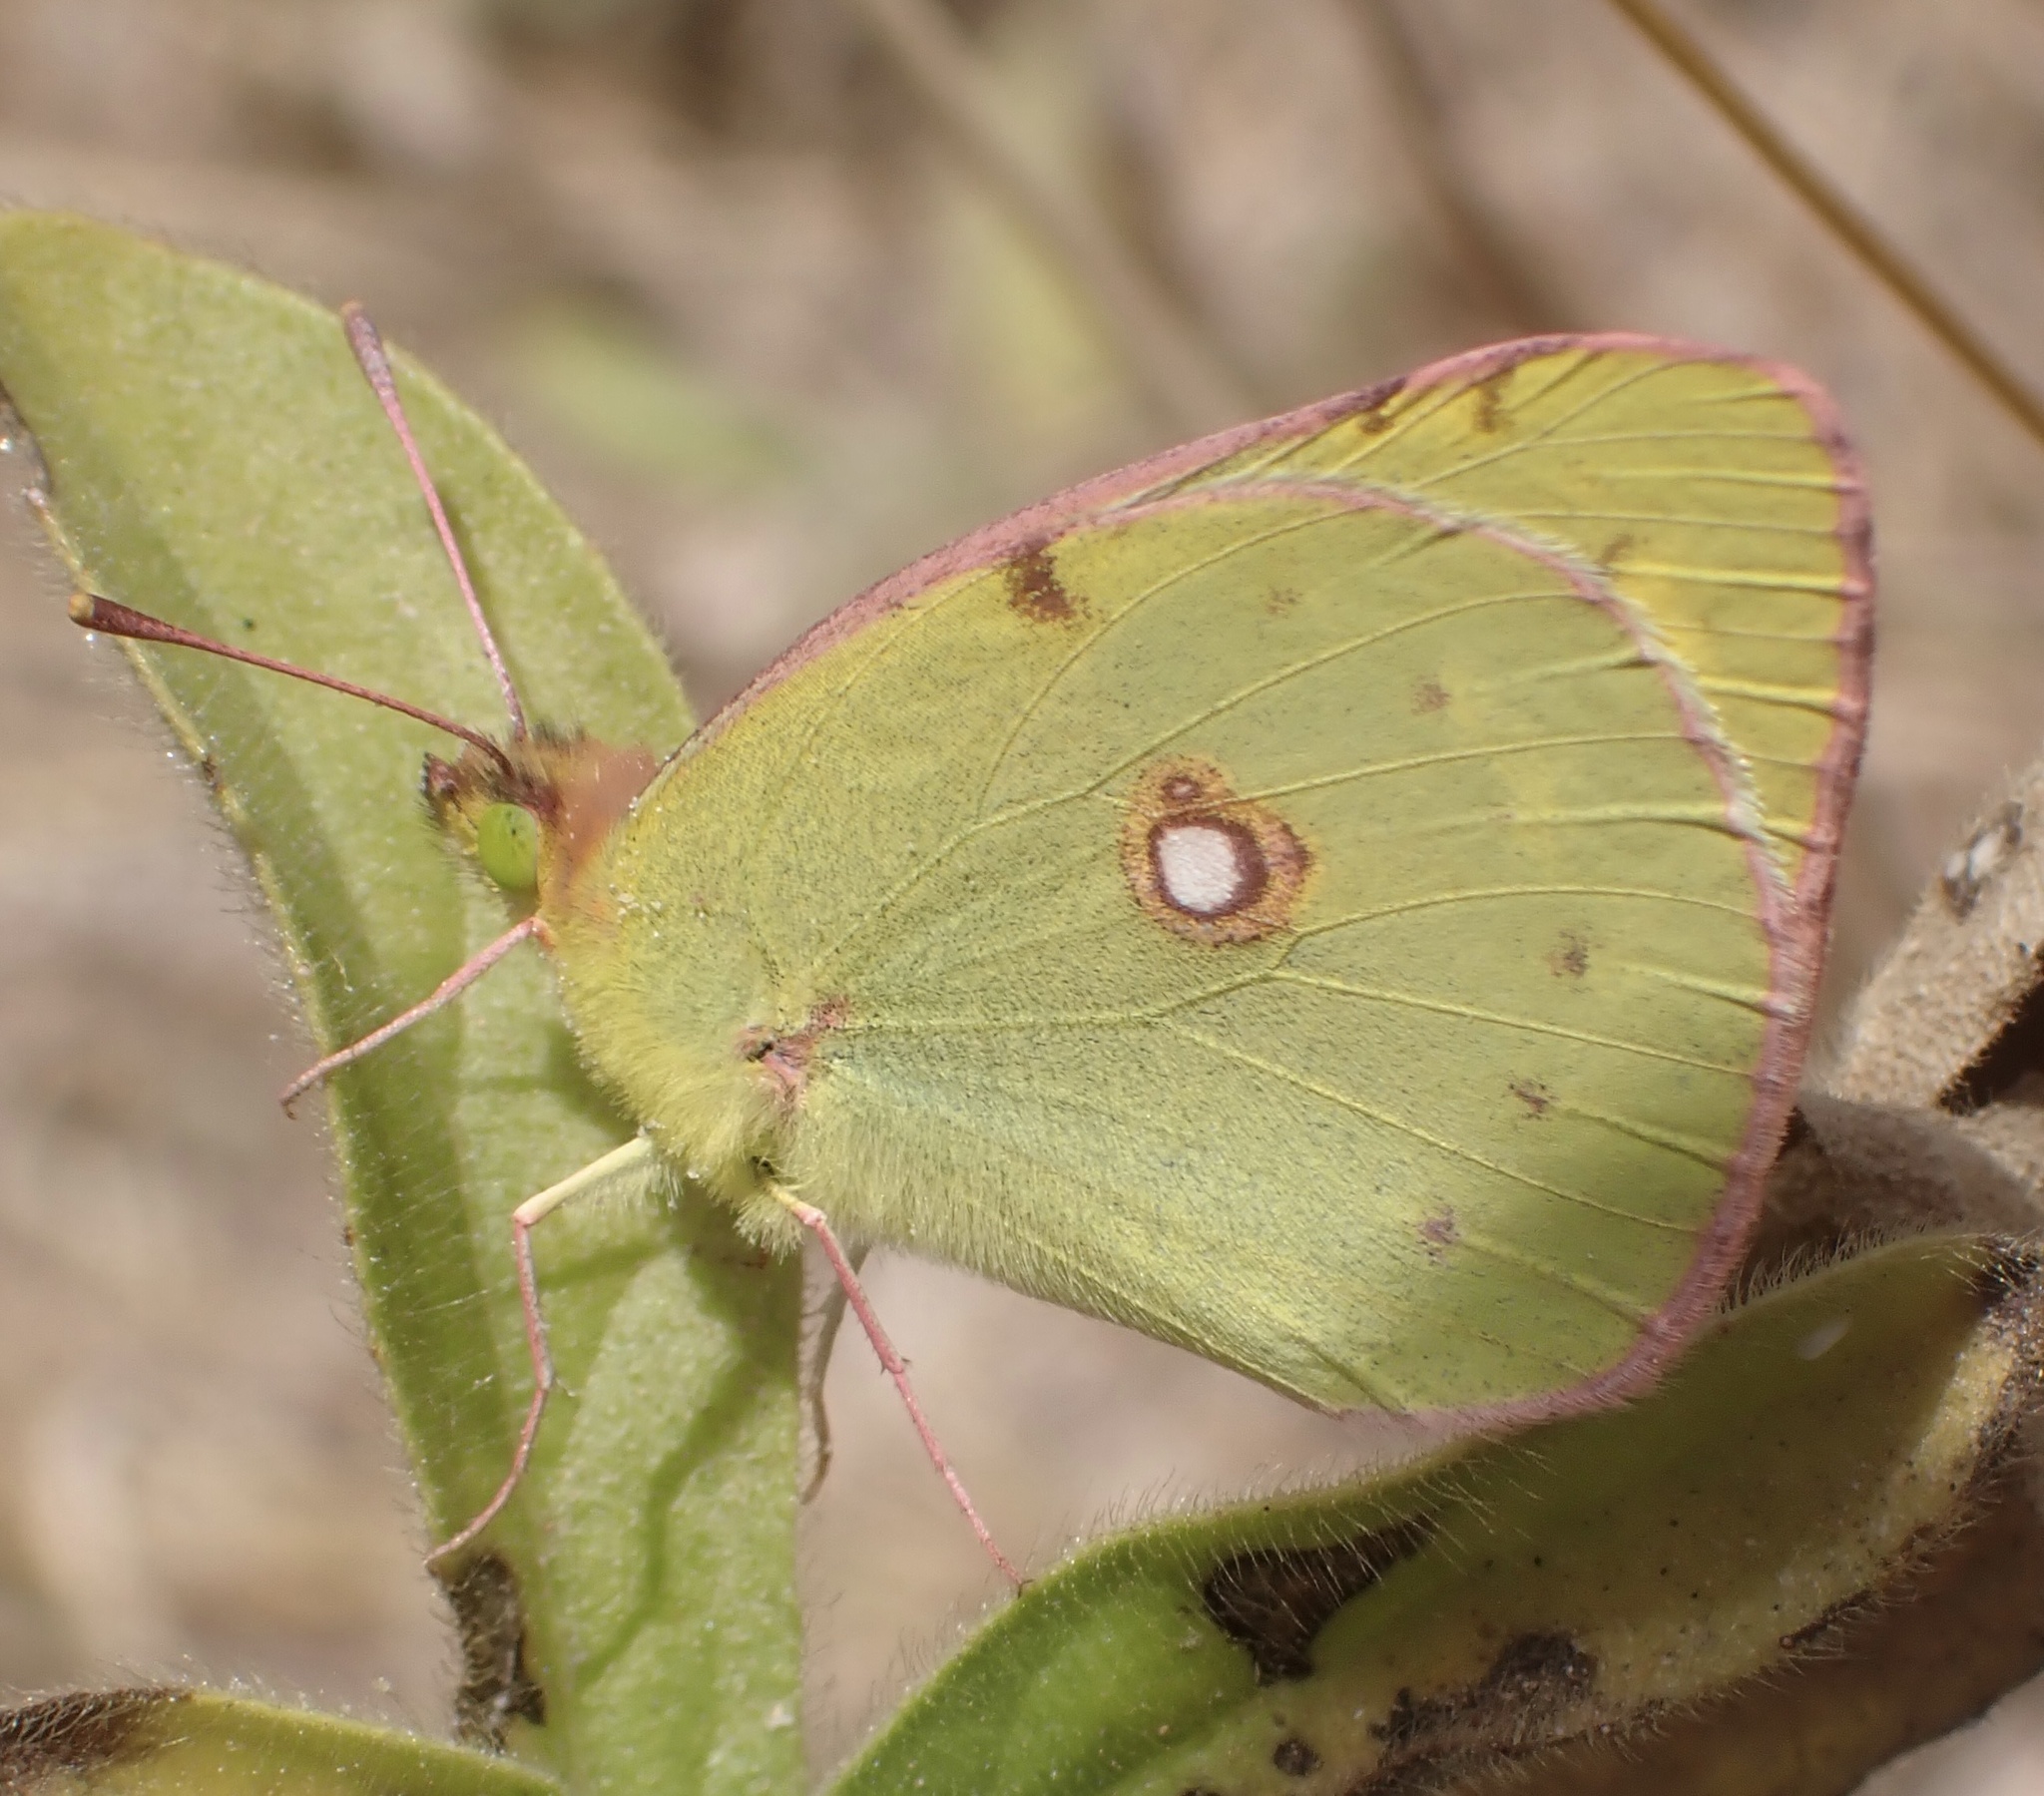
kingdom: Animalia
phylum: Arthropoda
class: Insecta
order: Lepidoptera
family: Pieridae
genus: Colias
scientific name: Colias croceus
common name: Clouded yellow
